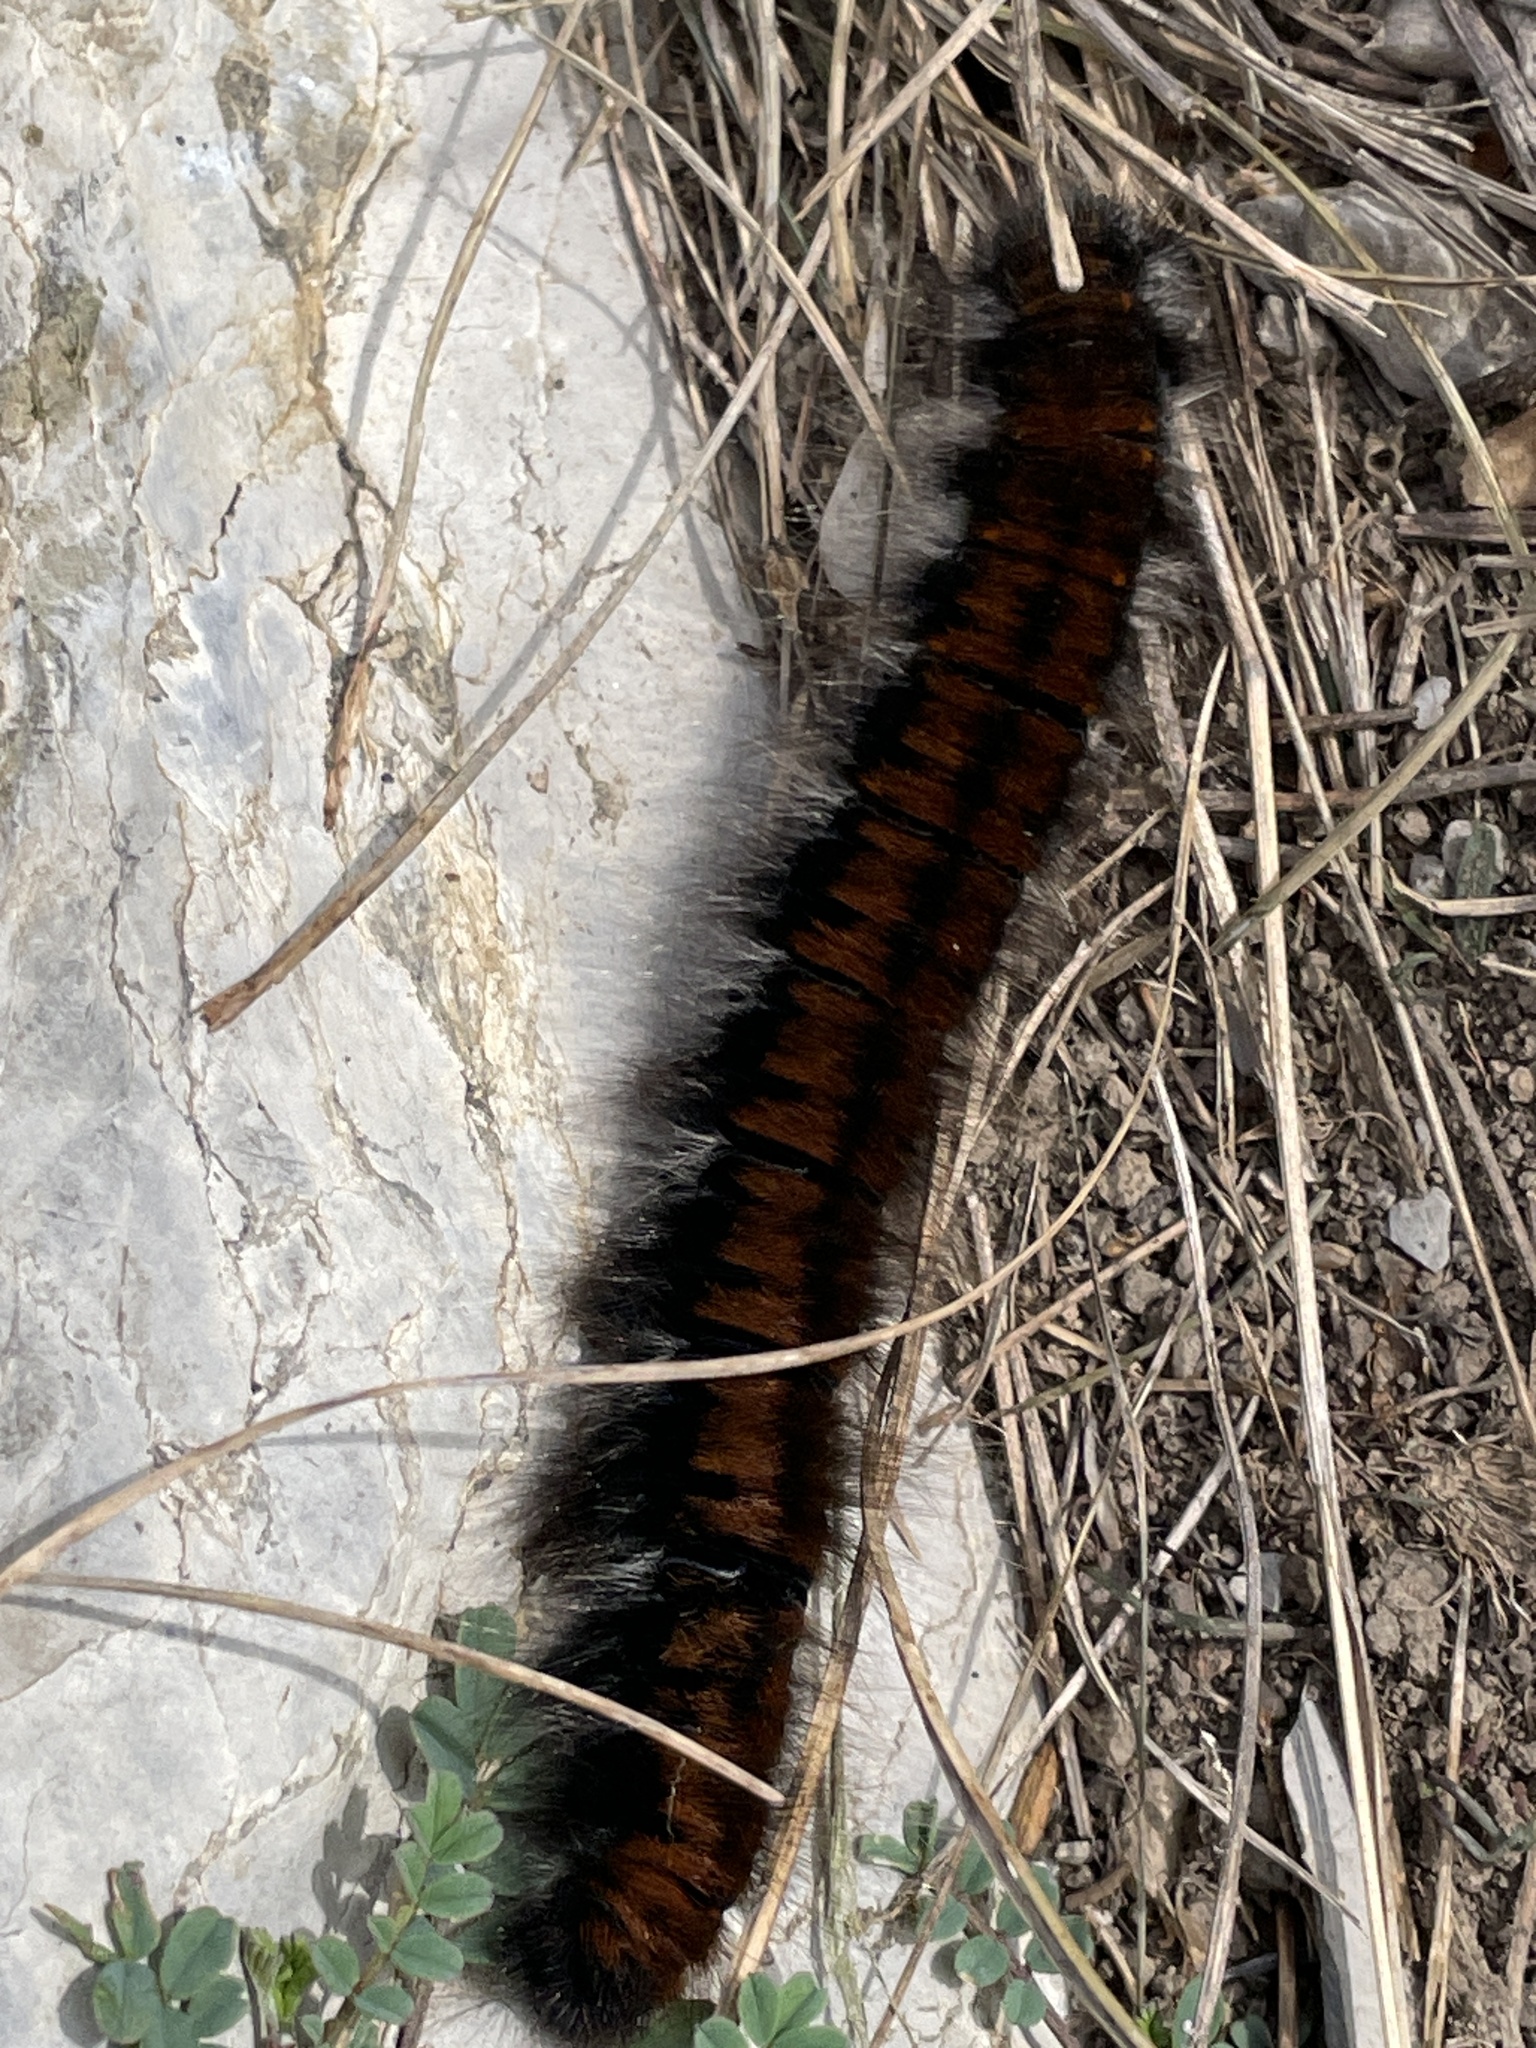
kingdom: Animalia
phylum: Arthropoda
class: Insecta
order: Lepidoptera
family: Lasiocampidae
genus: Macrothylacia
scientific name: Macrothylacia rubi
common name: Fox moth
